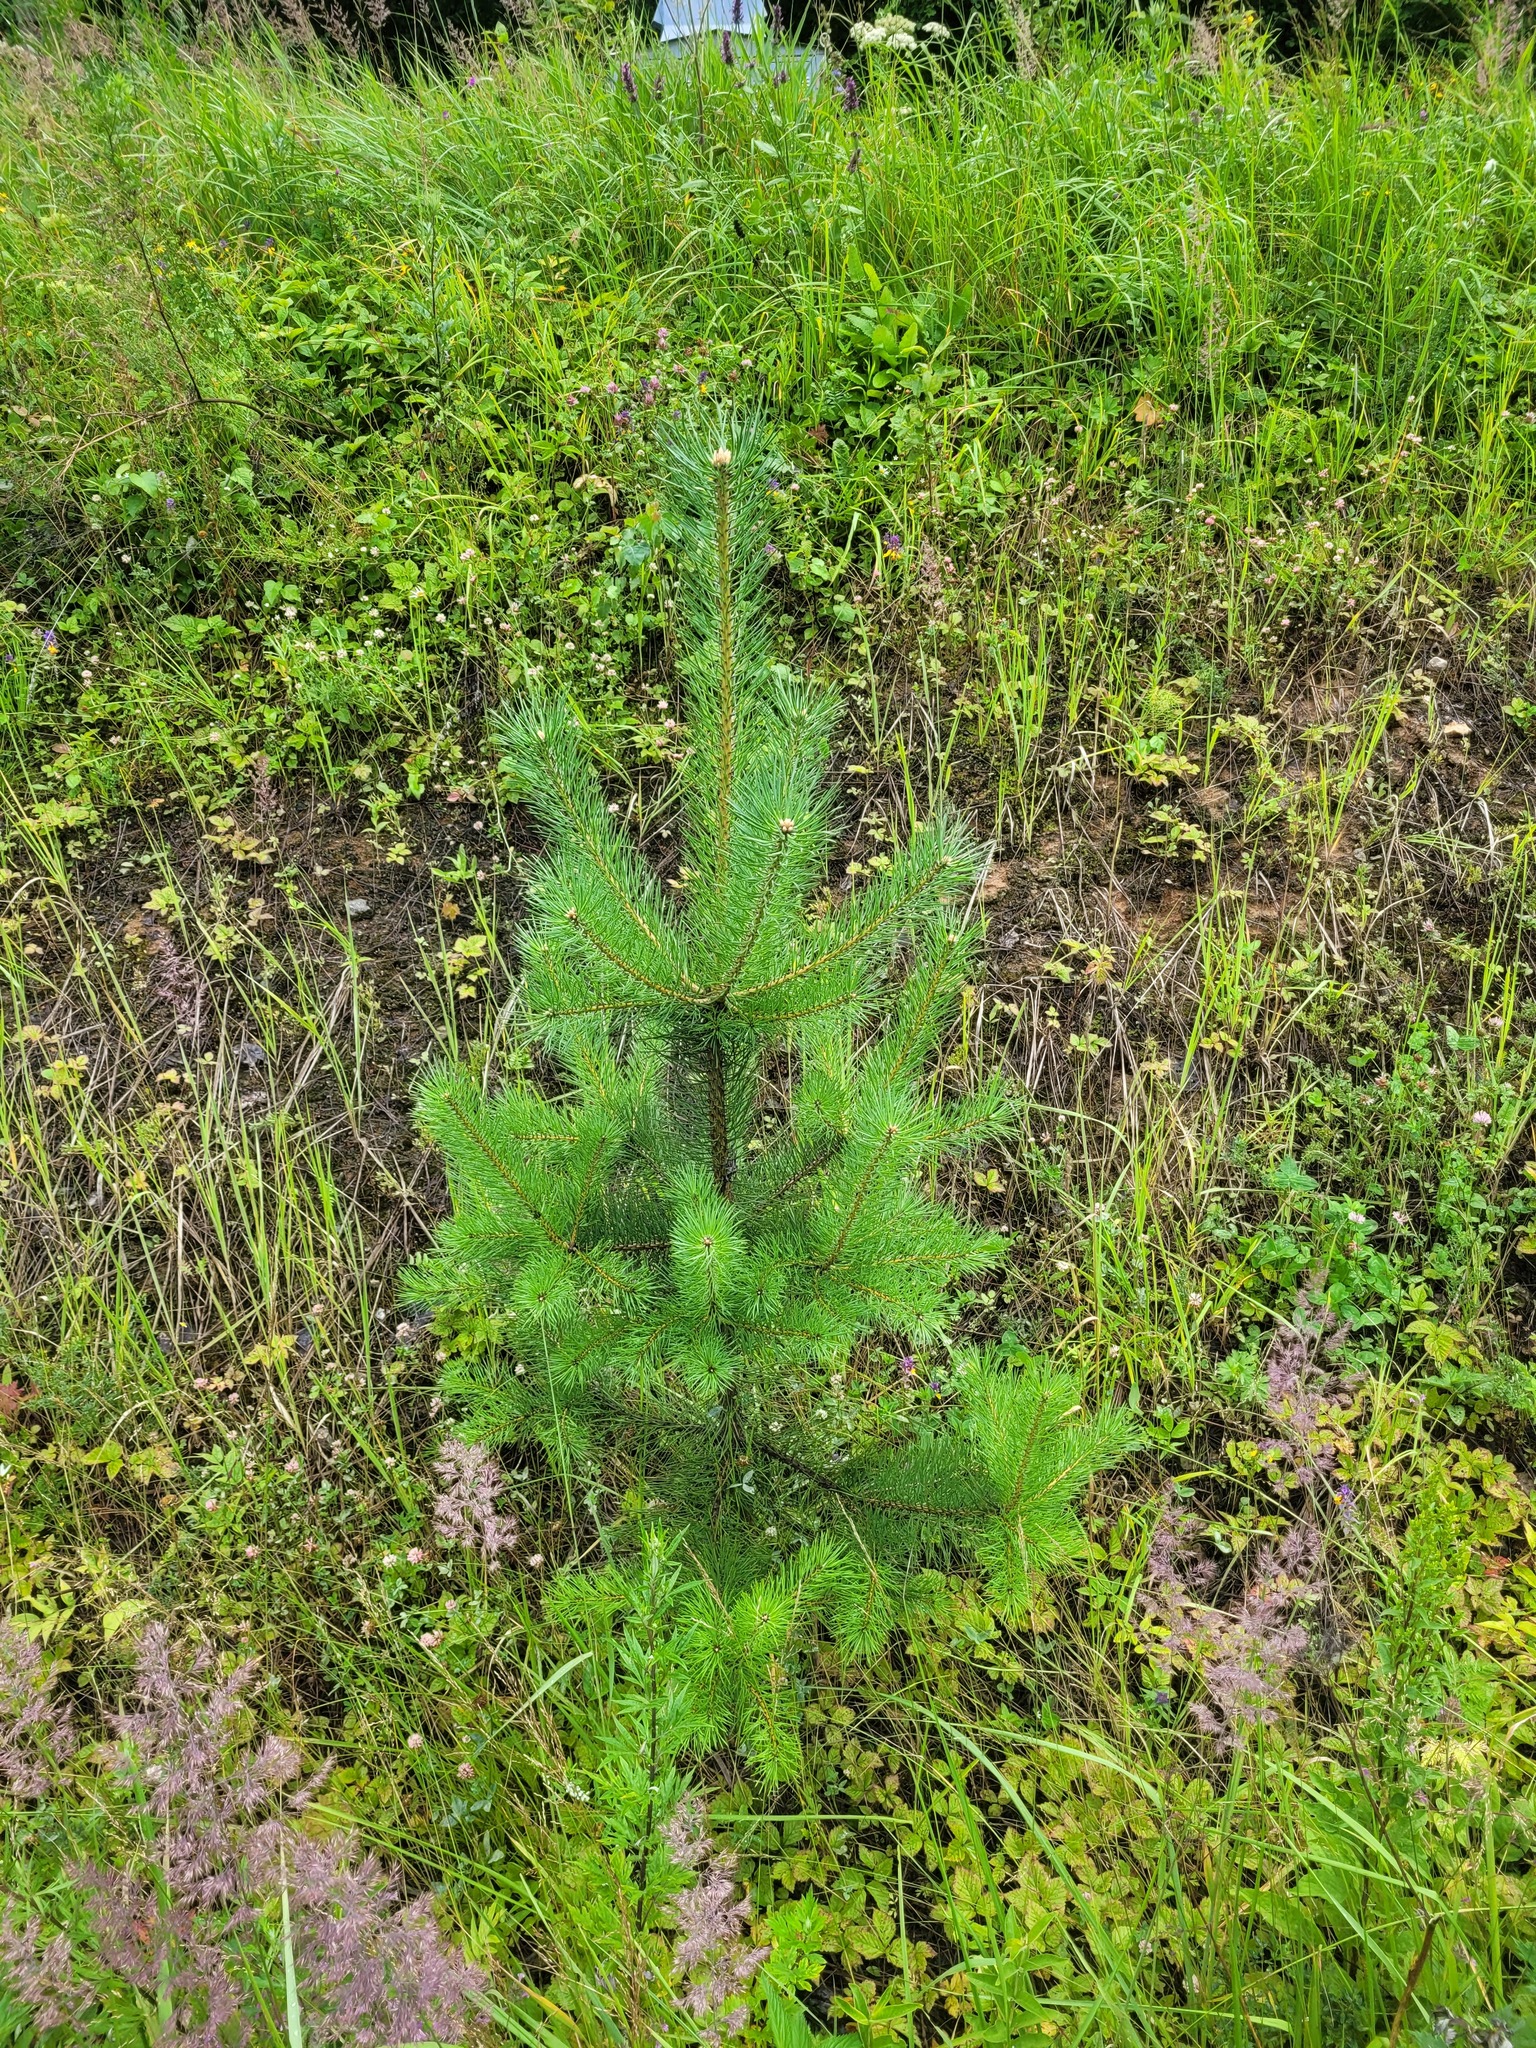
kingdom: Plantae
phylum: Tracheophyta
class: Pinopsida
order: Pinales
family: Pinaceae
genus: Pinus
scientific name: Pinus sylvestris
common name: Scots pine
